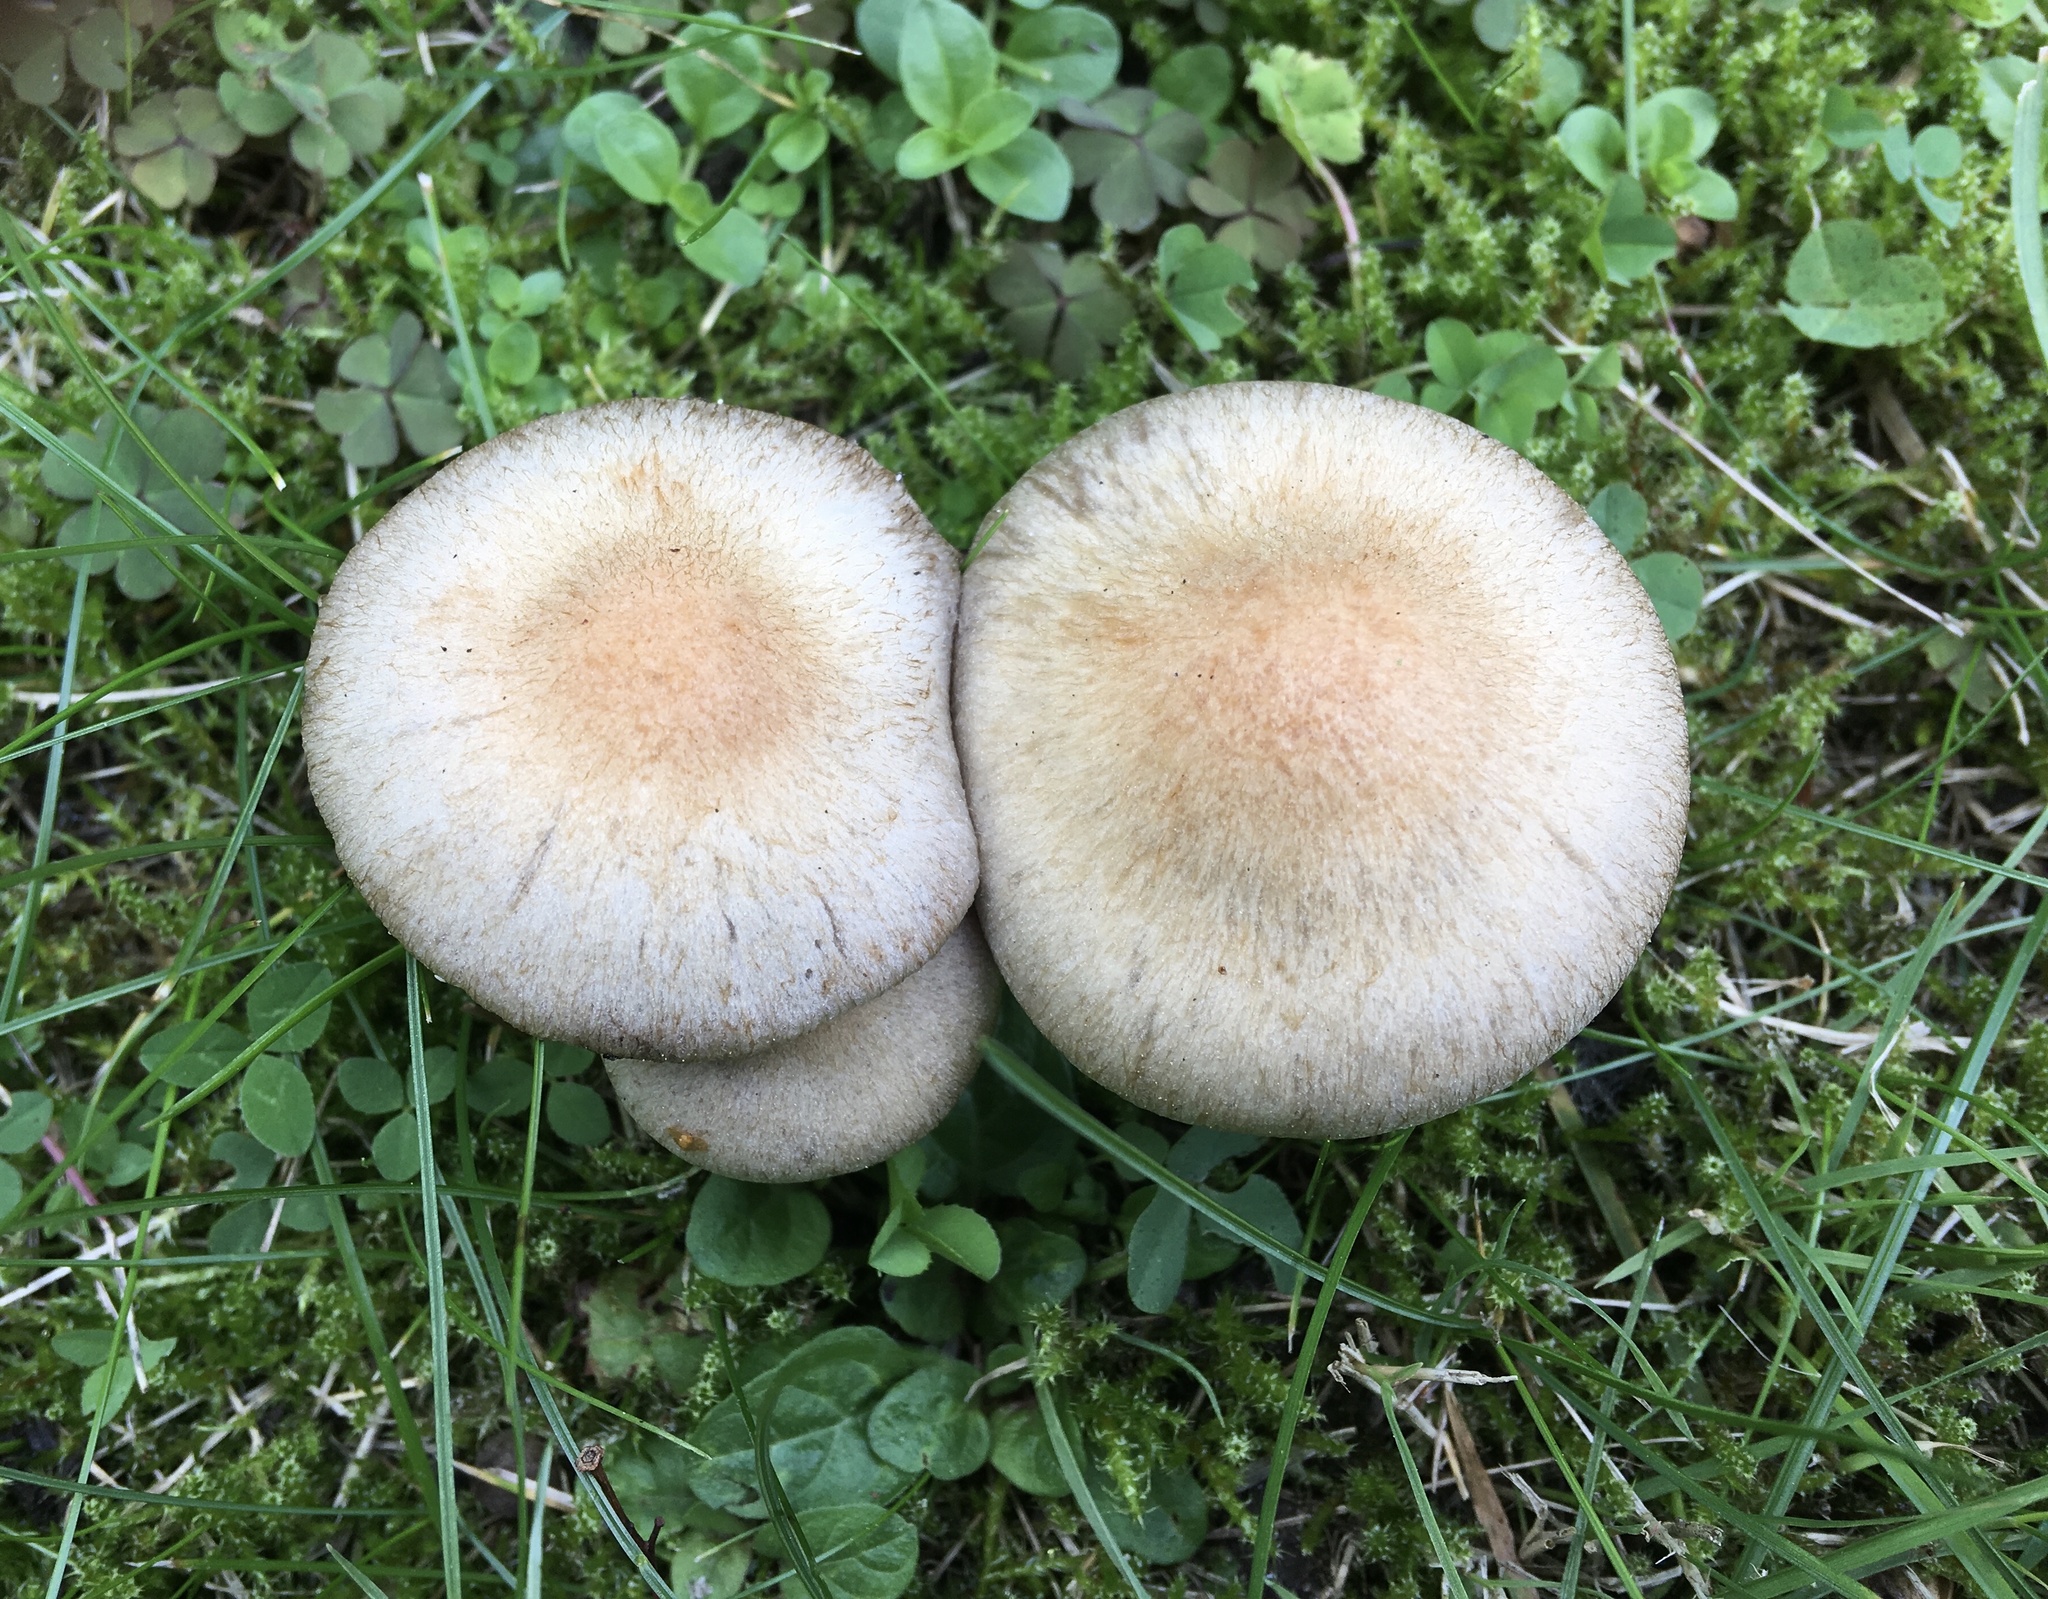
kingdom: Fungi
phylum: Basidiomycota
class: Agaricomycetes
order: Agaricales
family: Psathyrellaceae
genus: Lacrymaria
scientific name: Lacrymaria lacrymabunda
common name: Weeping widow
